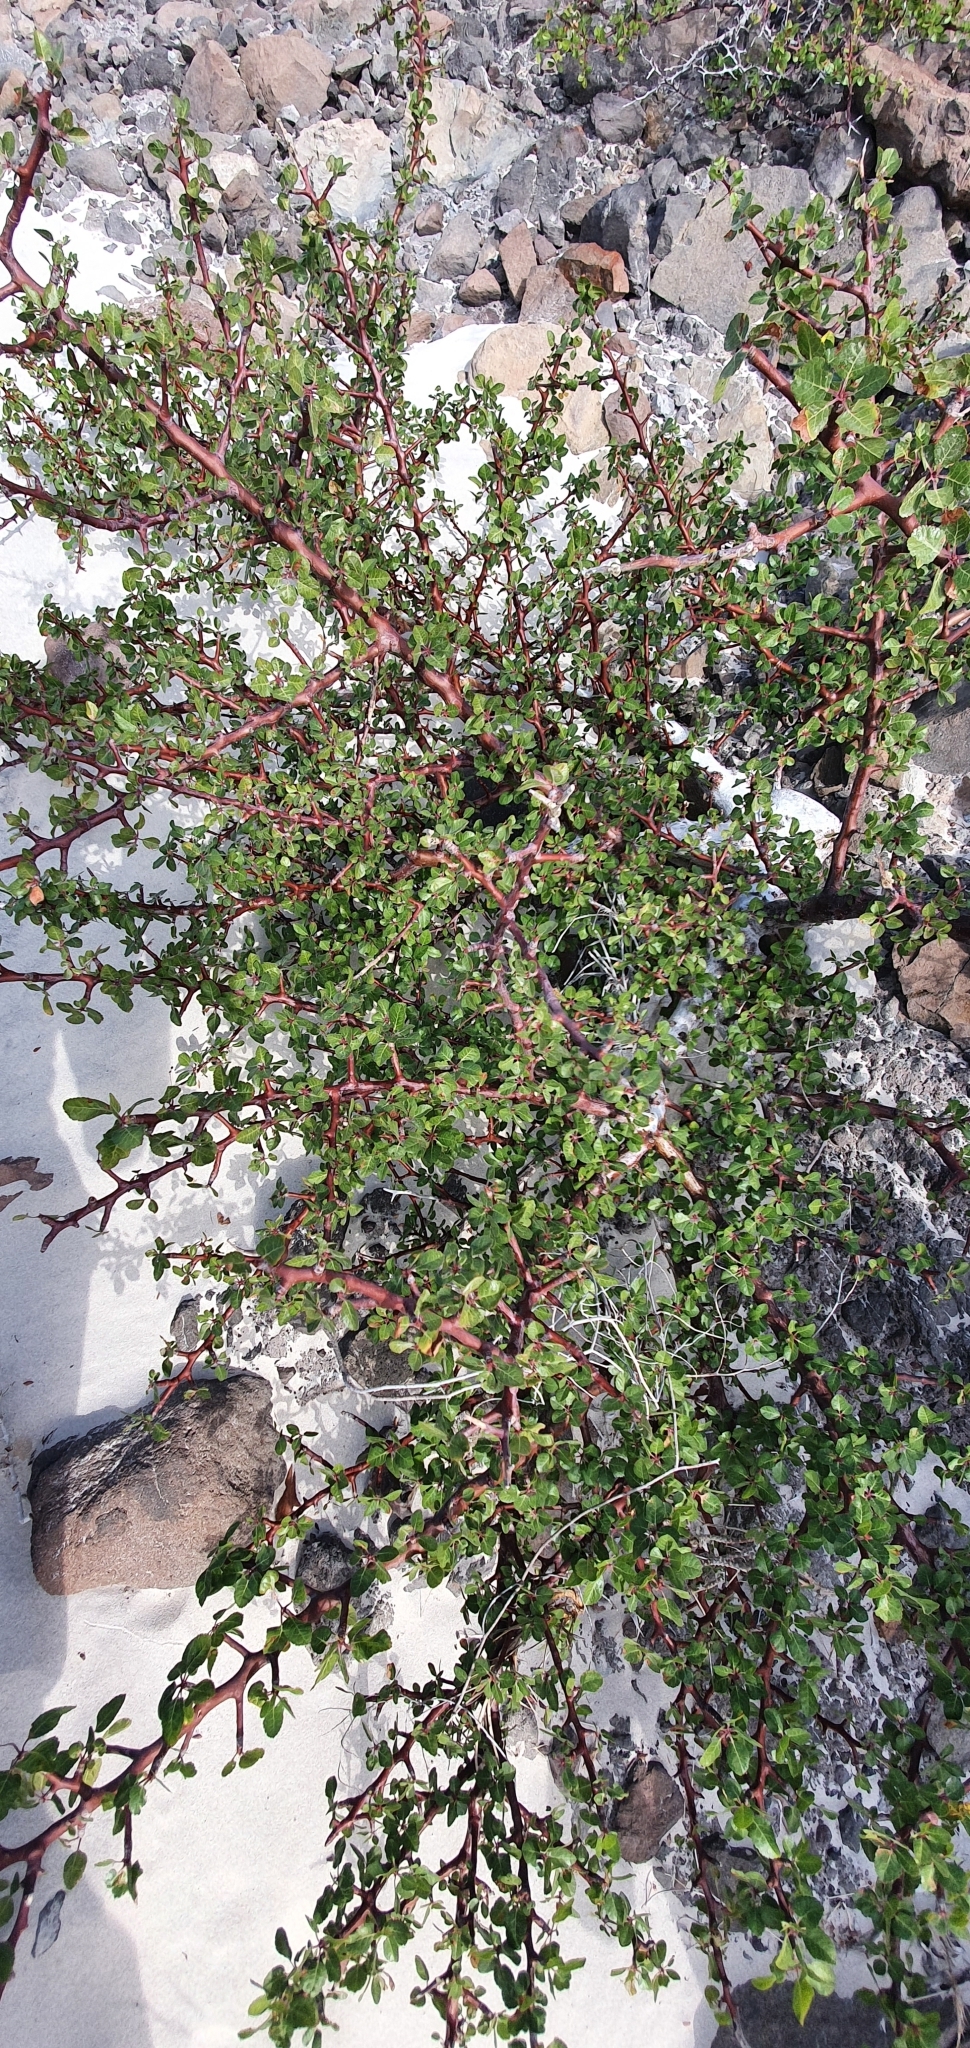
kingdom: Plantae
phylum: Tracheophyta
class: Magnoliopsida
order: Sapindales
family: Burseraceae
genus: Bursera
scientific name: Bursera epinnata
